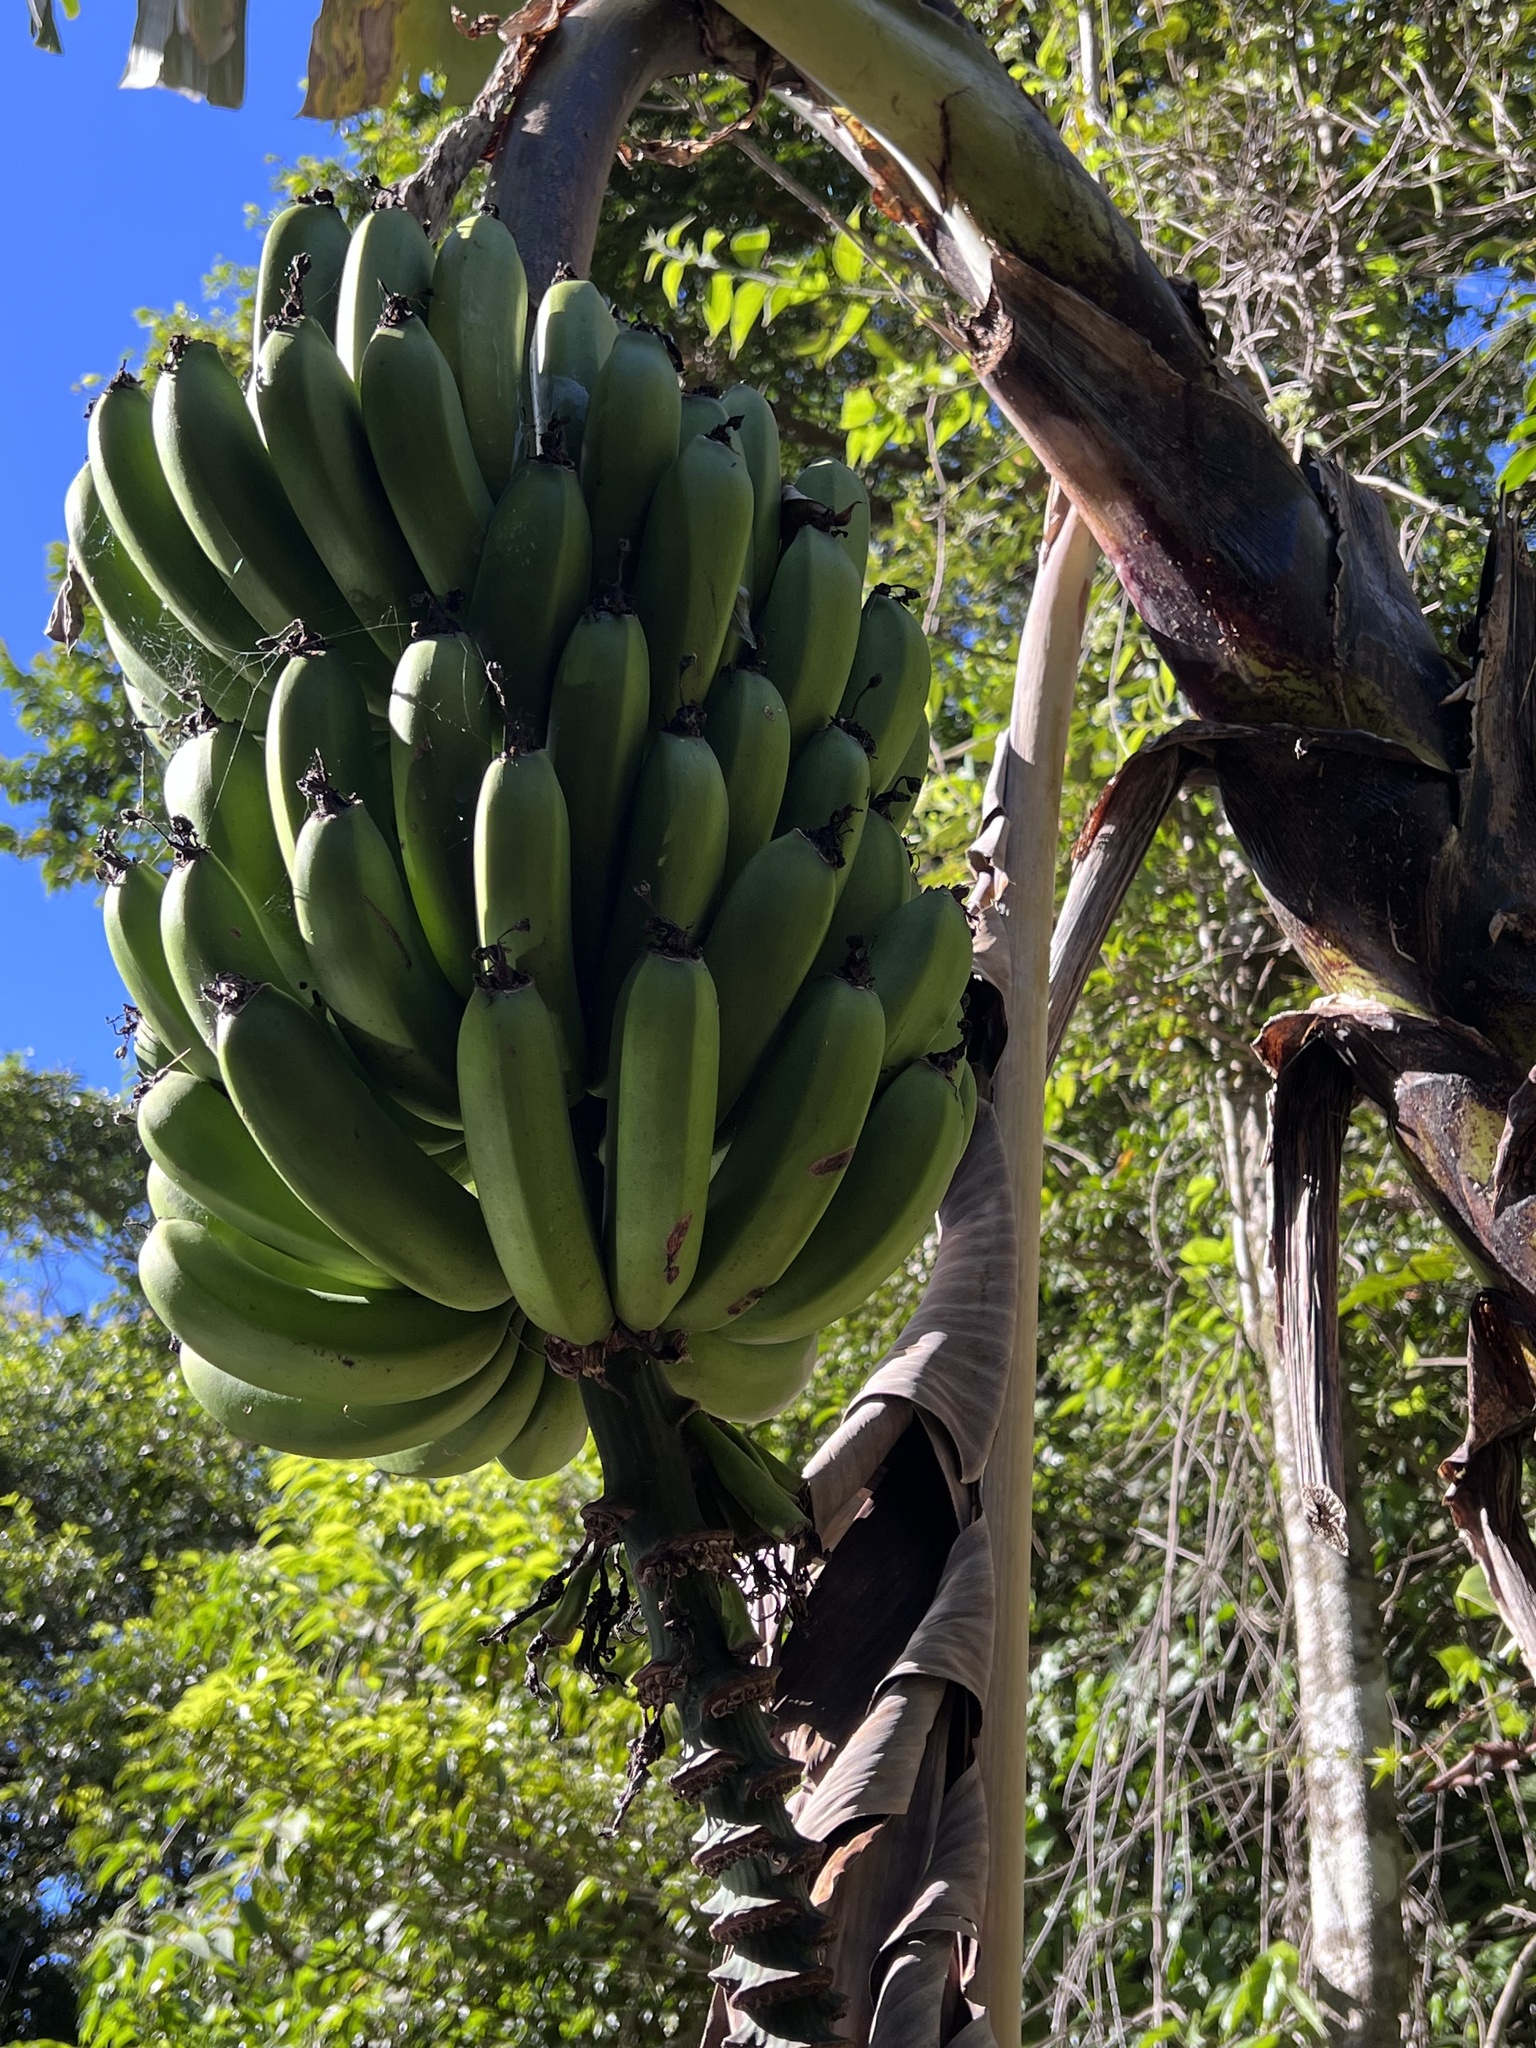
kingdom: Plantae
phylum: Tracheophyta
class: Liliopsida
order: Zingiberales
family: Musaceae
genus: Musa
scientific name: Musa acuminata
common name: Edible banana
